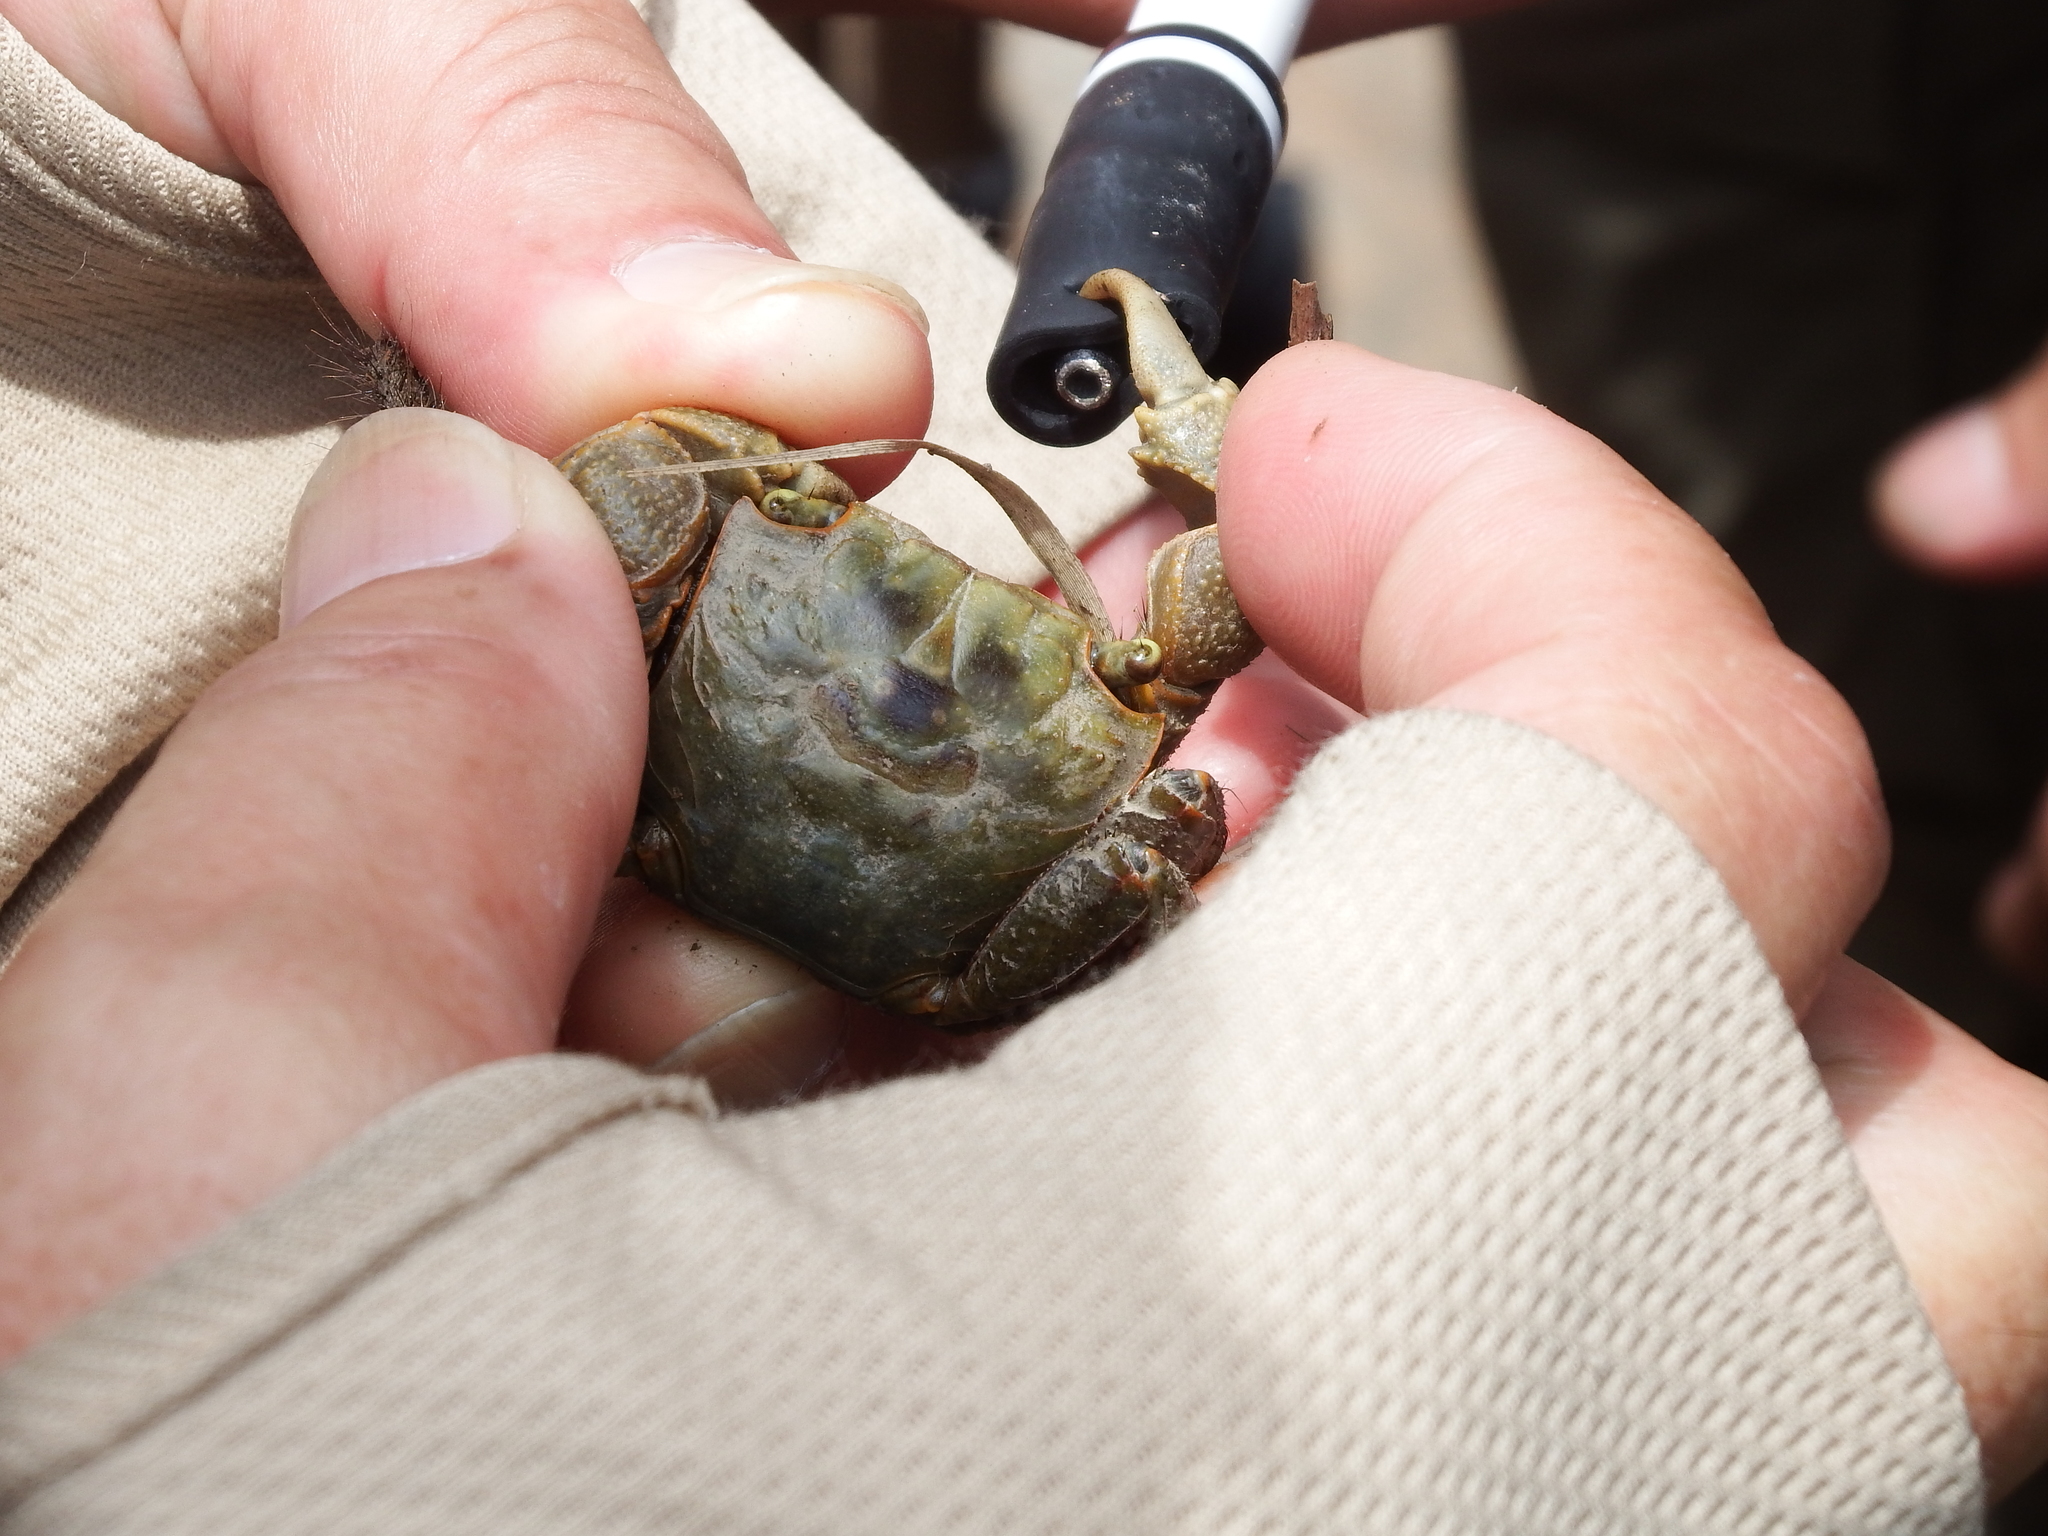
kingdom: Animalia
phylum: Arthropoda
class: Malacostraca
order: Decapoda
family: Sesarmidae
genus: Orisarma
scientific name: Orisarma dehaani
